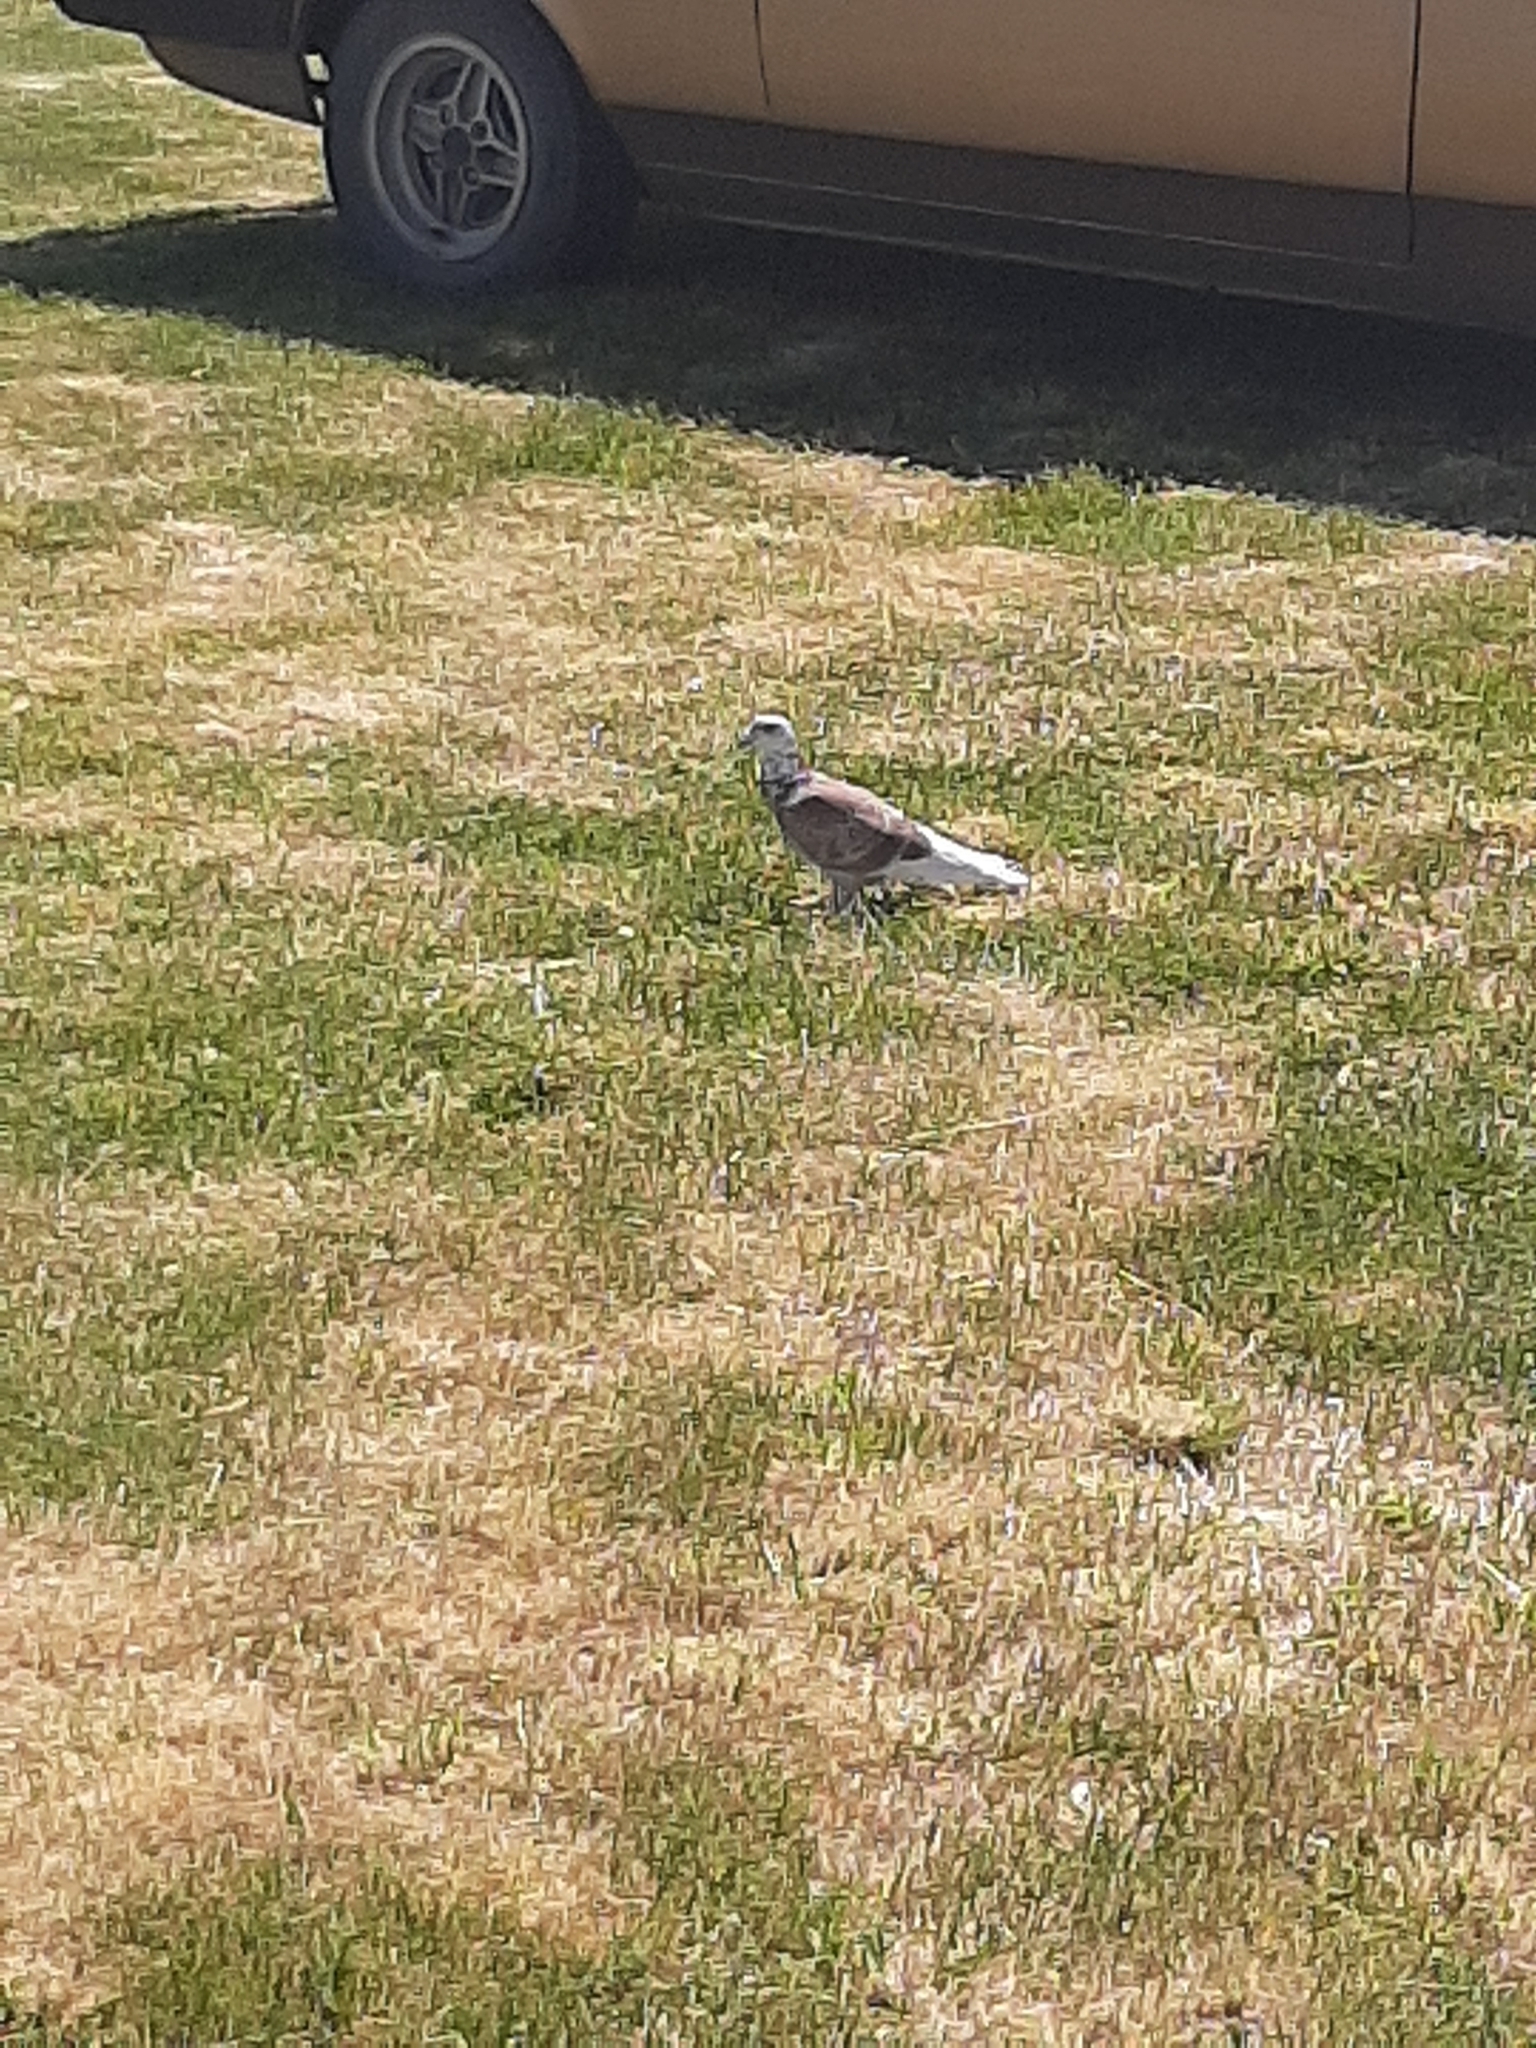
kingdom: Animalia
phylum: Chordata
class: Aves
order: Columbiformes
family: Columbidae
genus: Columba
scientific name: Columba livia
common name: Rock pigeon
